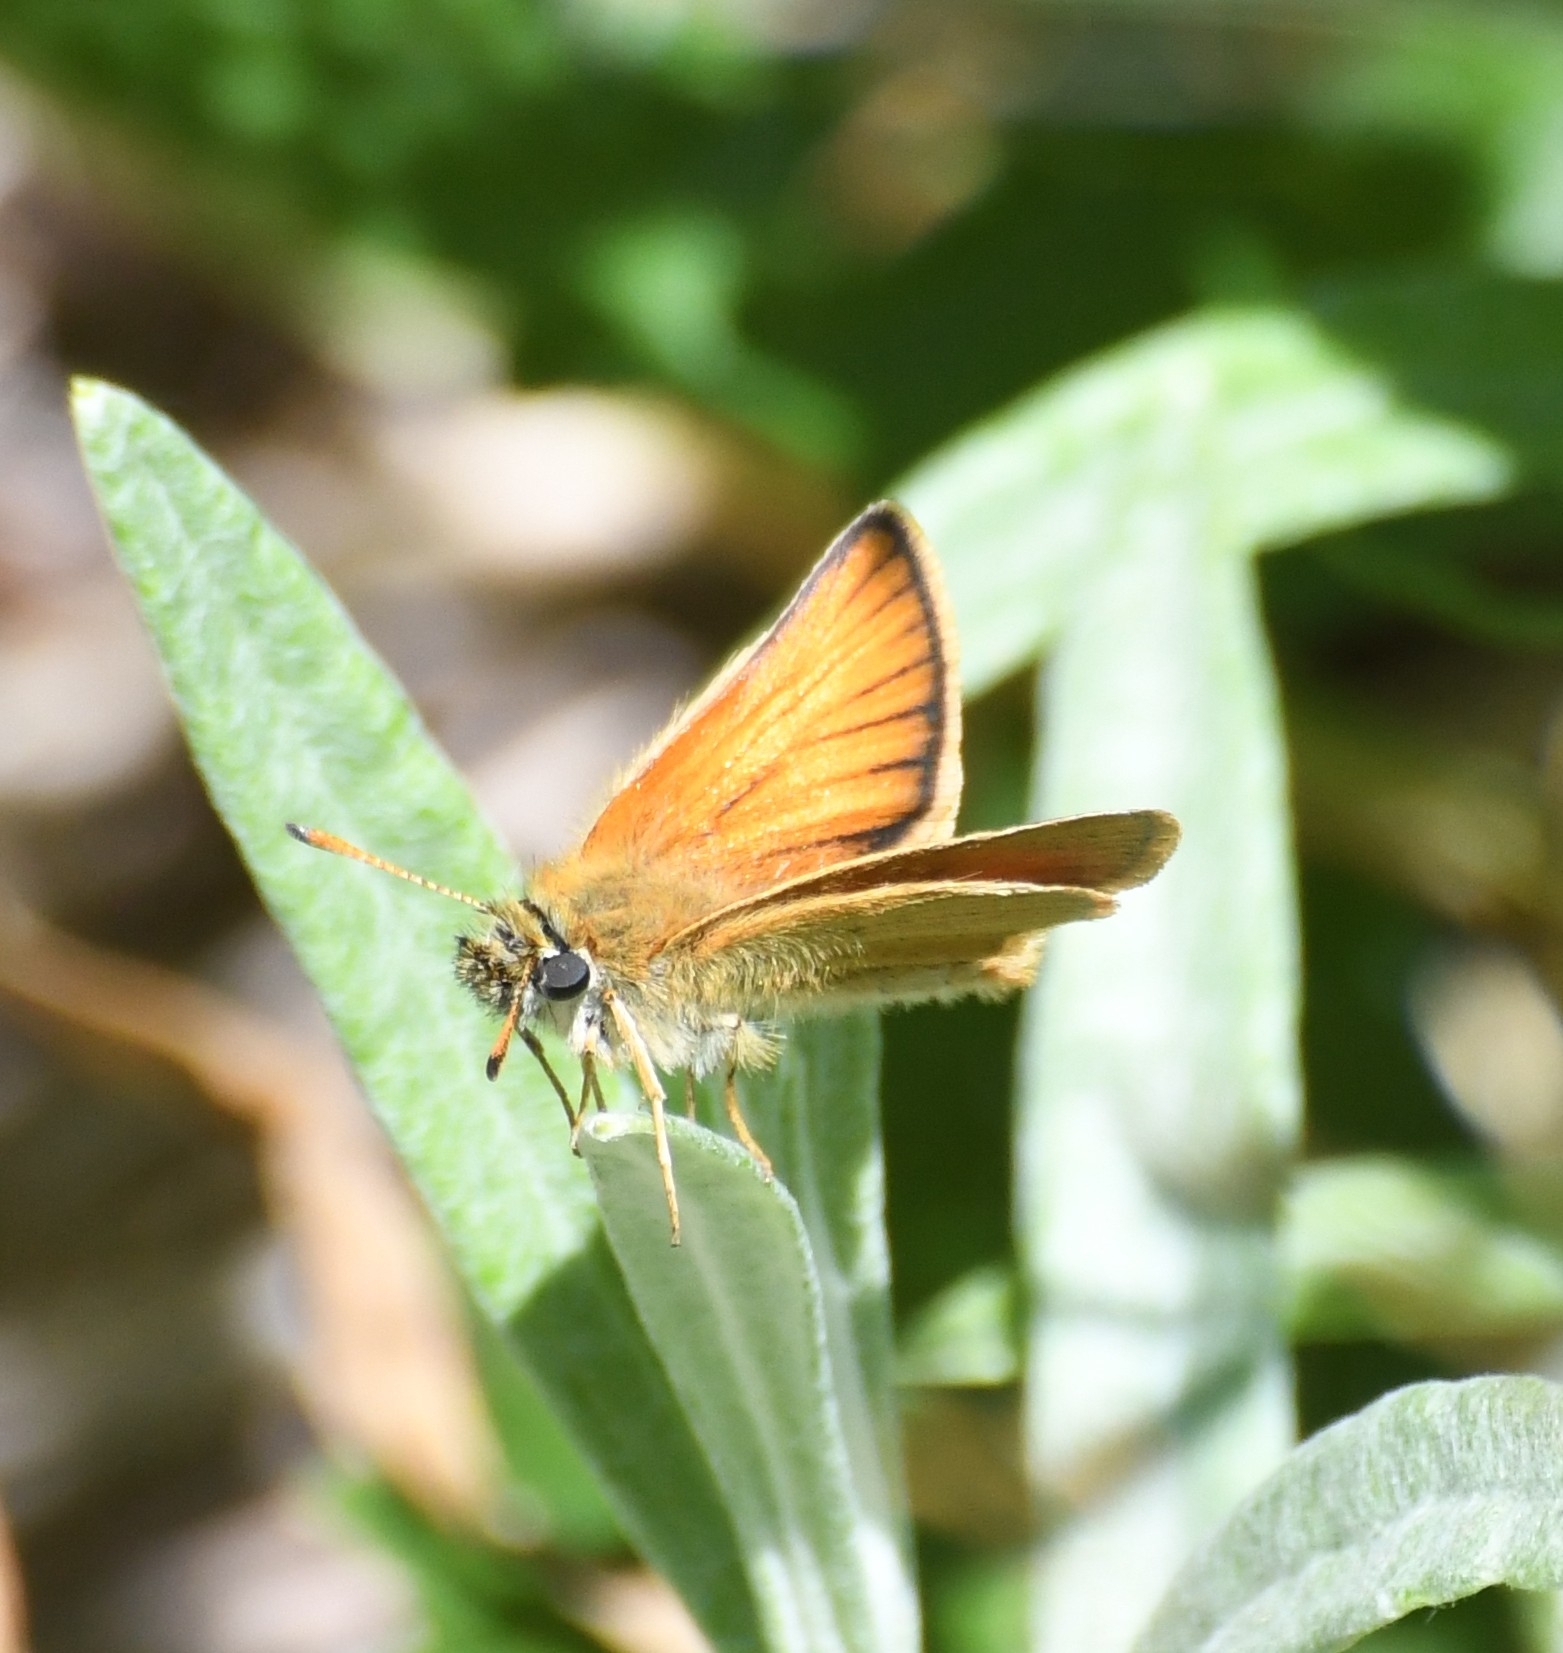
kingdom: Animalia
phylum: Arthropoda
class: Insecta
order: Lepidoptera
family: Hesperiidae
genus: Thymelicus
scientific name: Thymelicus lineola
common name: Essex skipper
